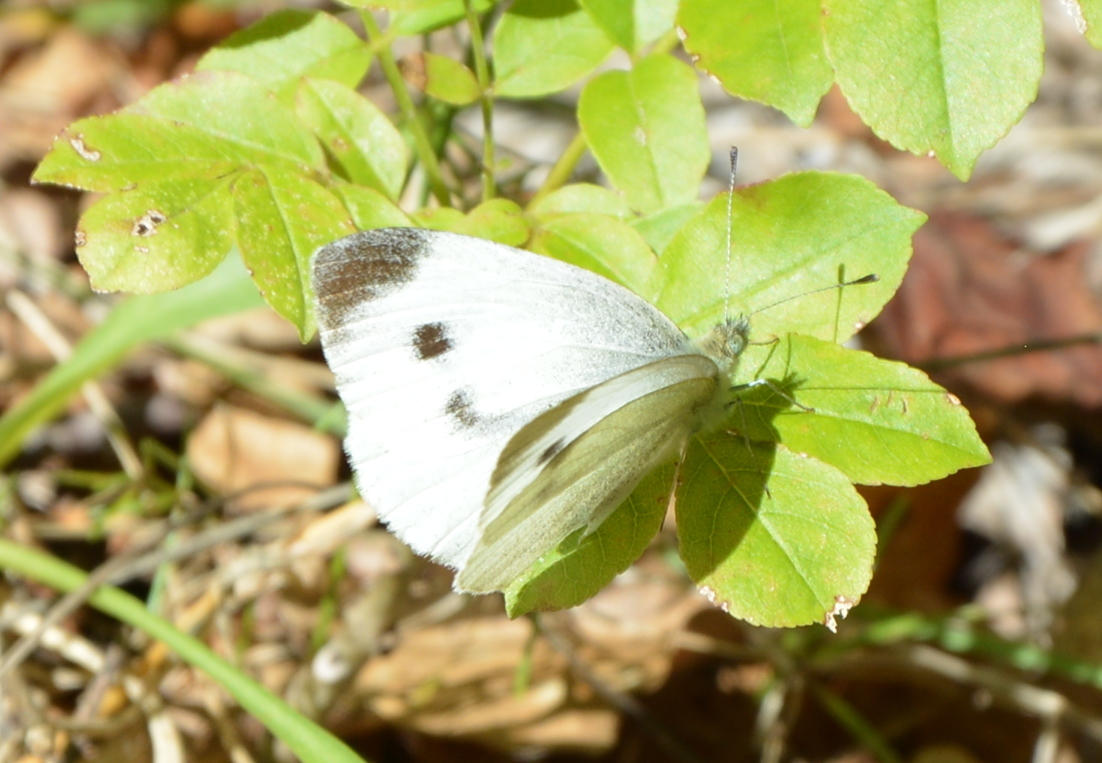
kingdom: Animalia
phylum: Arthropoda
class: Insecta
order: Lepidoptera
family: Pieridae
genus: Pieris
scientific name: Pieris rapae
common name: Small white
